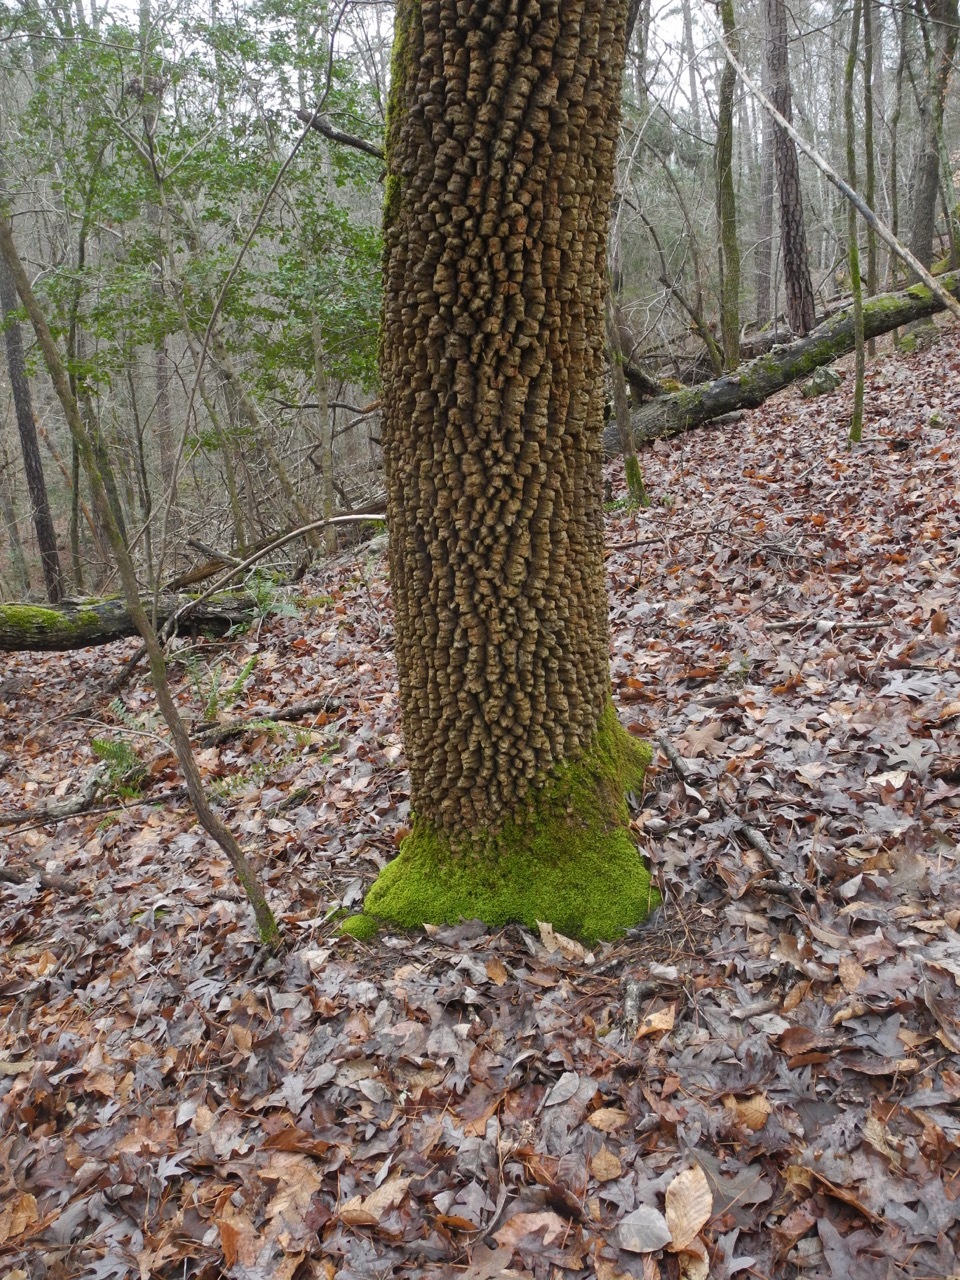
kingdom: Plantae
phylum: Tracheophyta
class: Magnoliopsida
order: Cornales
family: Nyssaceae
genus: Nyssa
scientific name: Nyssa sylvatica
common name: Black tupelo
